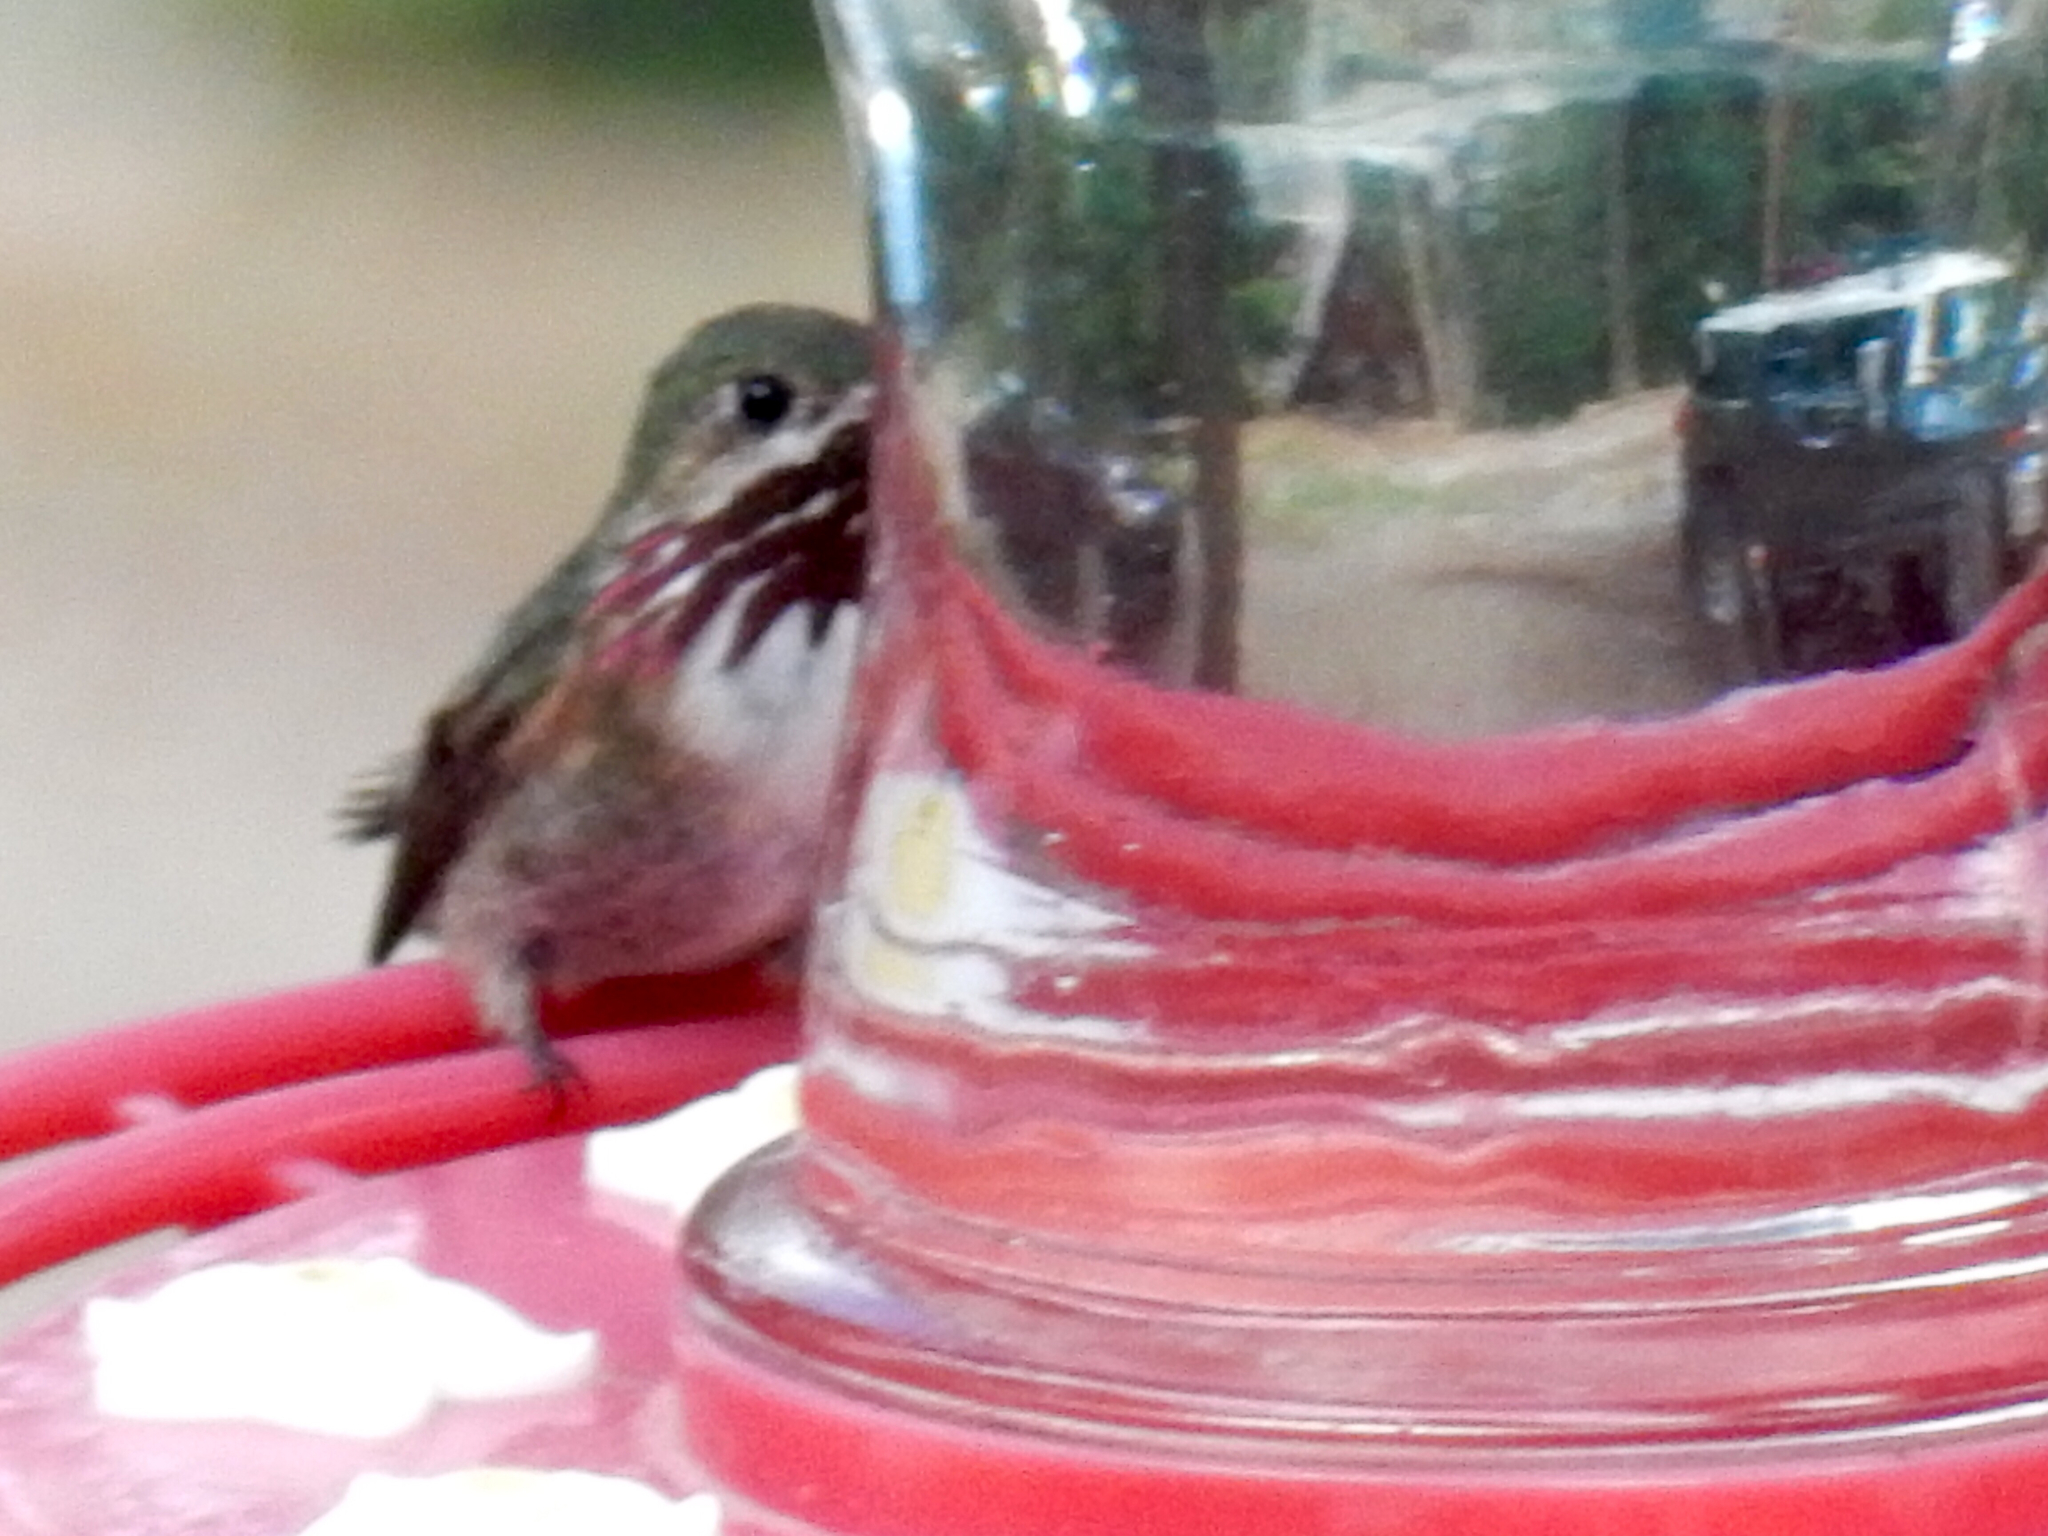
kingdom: Animalia
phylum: Chordata
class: Aves
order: Apodiformes
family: Trochilidae
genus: Selasphorus
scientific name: Selasphorus calliope
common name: Calliope hummingbird
